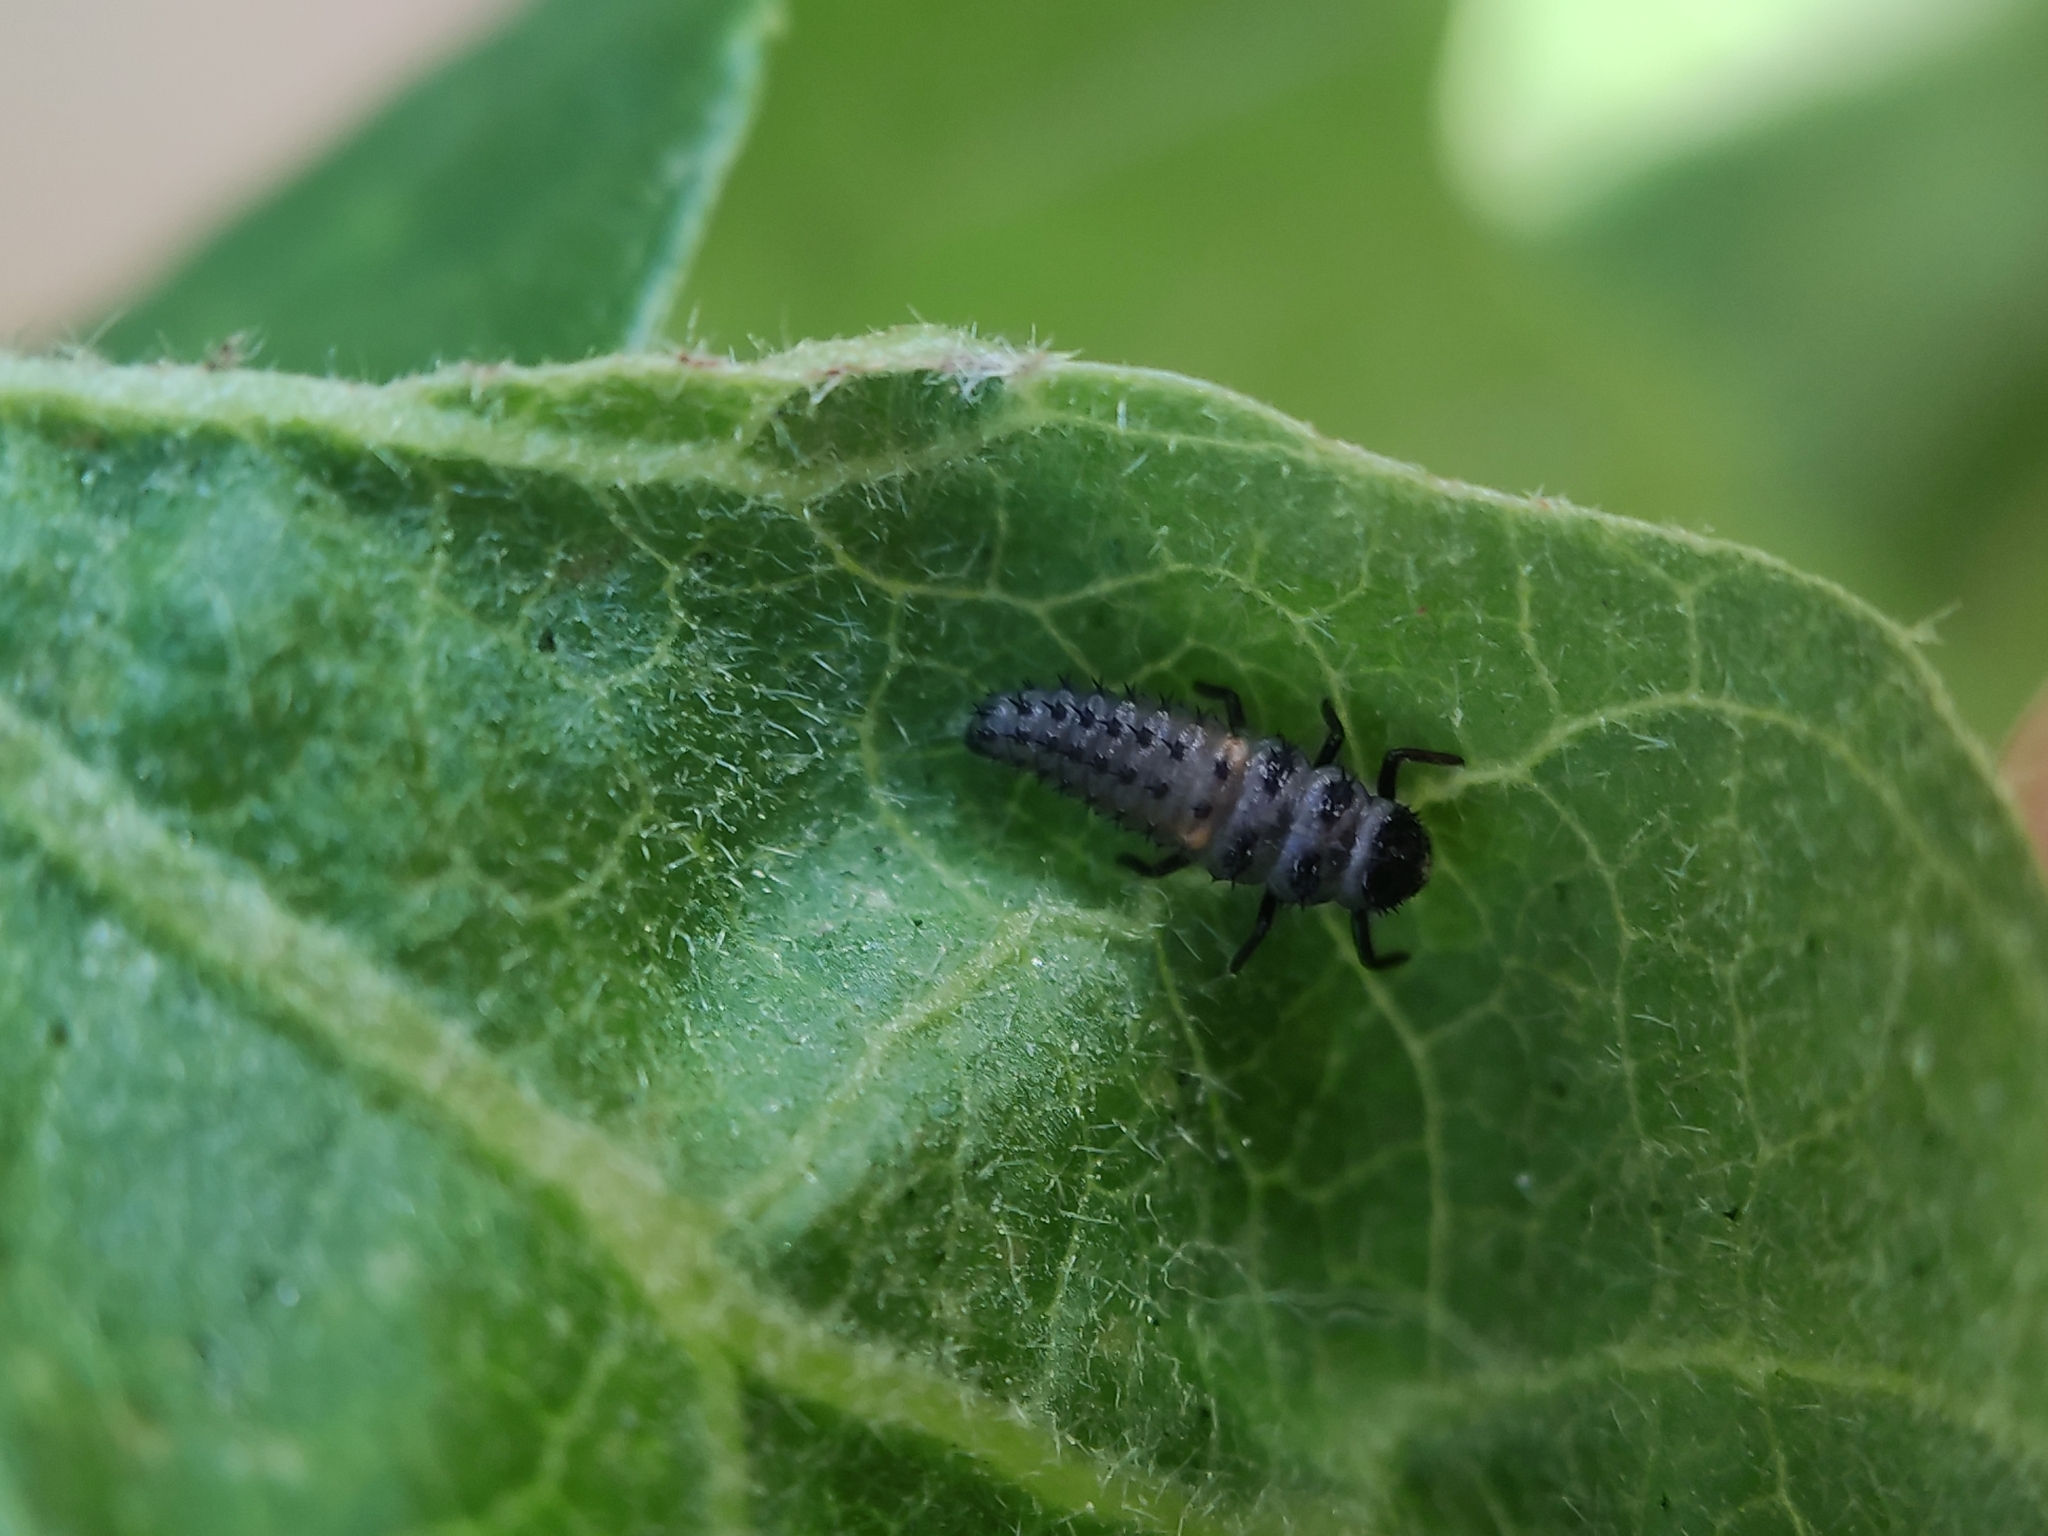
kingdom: Animalia
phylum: Arthropoda
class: Insecta
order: Coleoptera
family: Coccinellidae
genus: Harmonia
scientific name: Harmonia axyridis
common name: Harlequin ladybird
